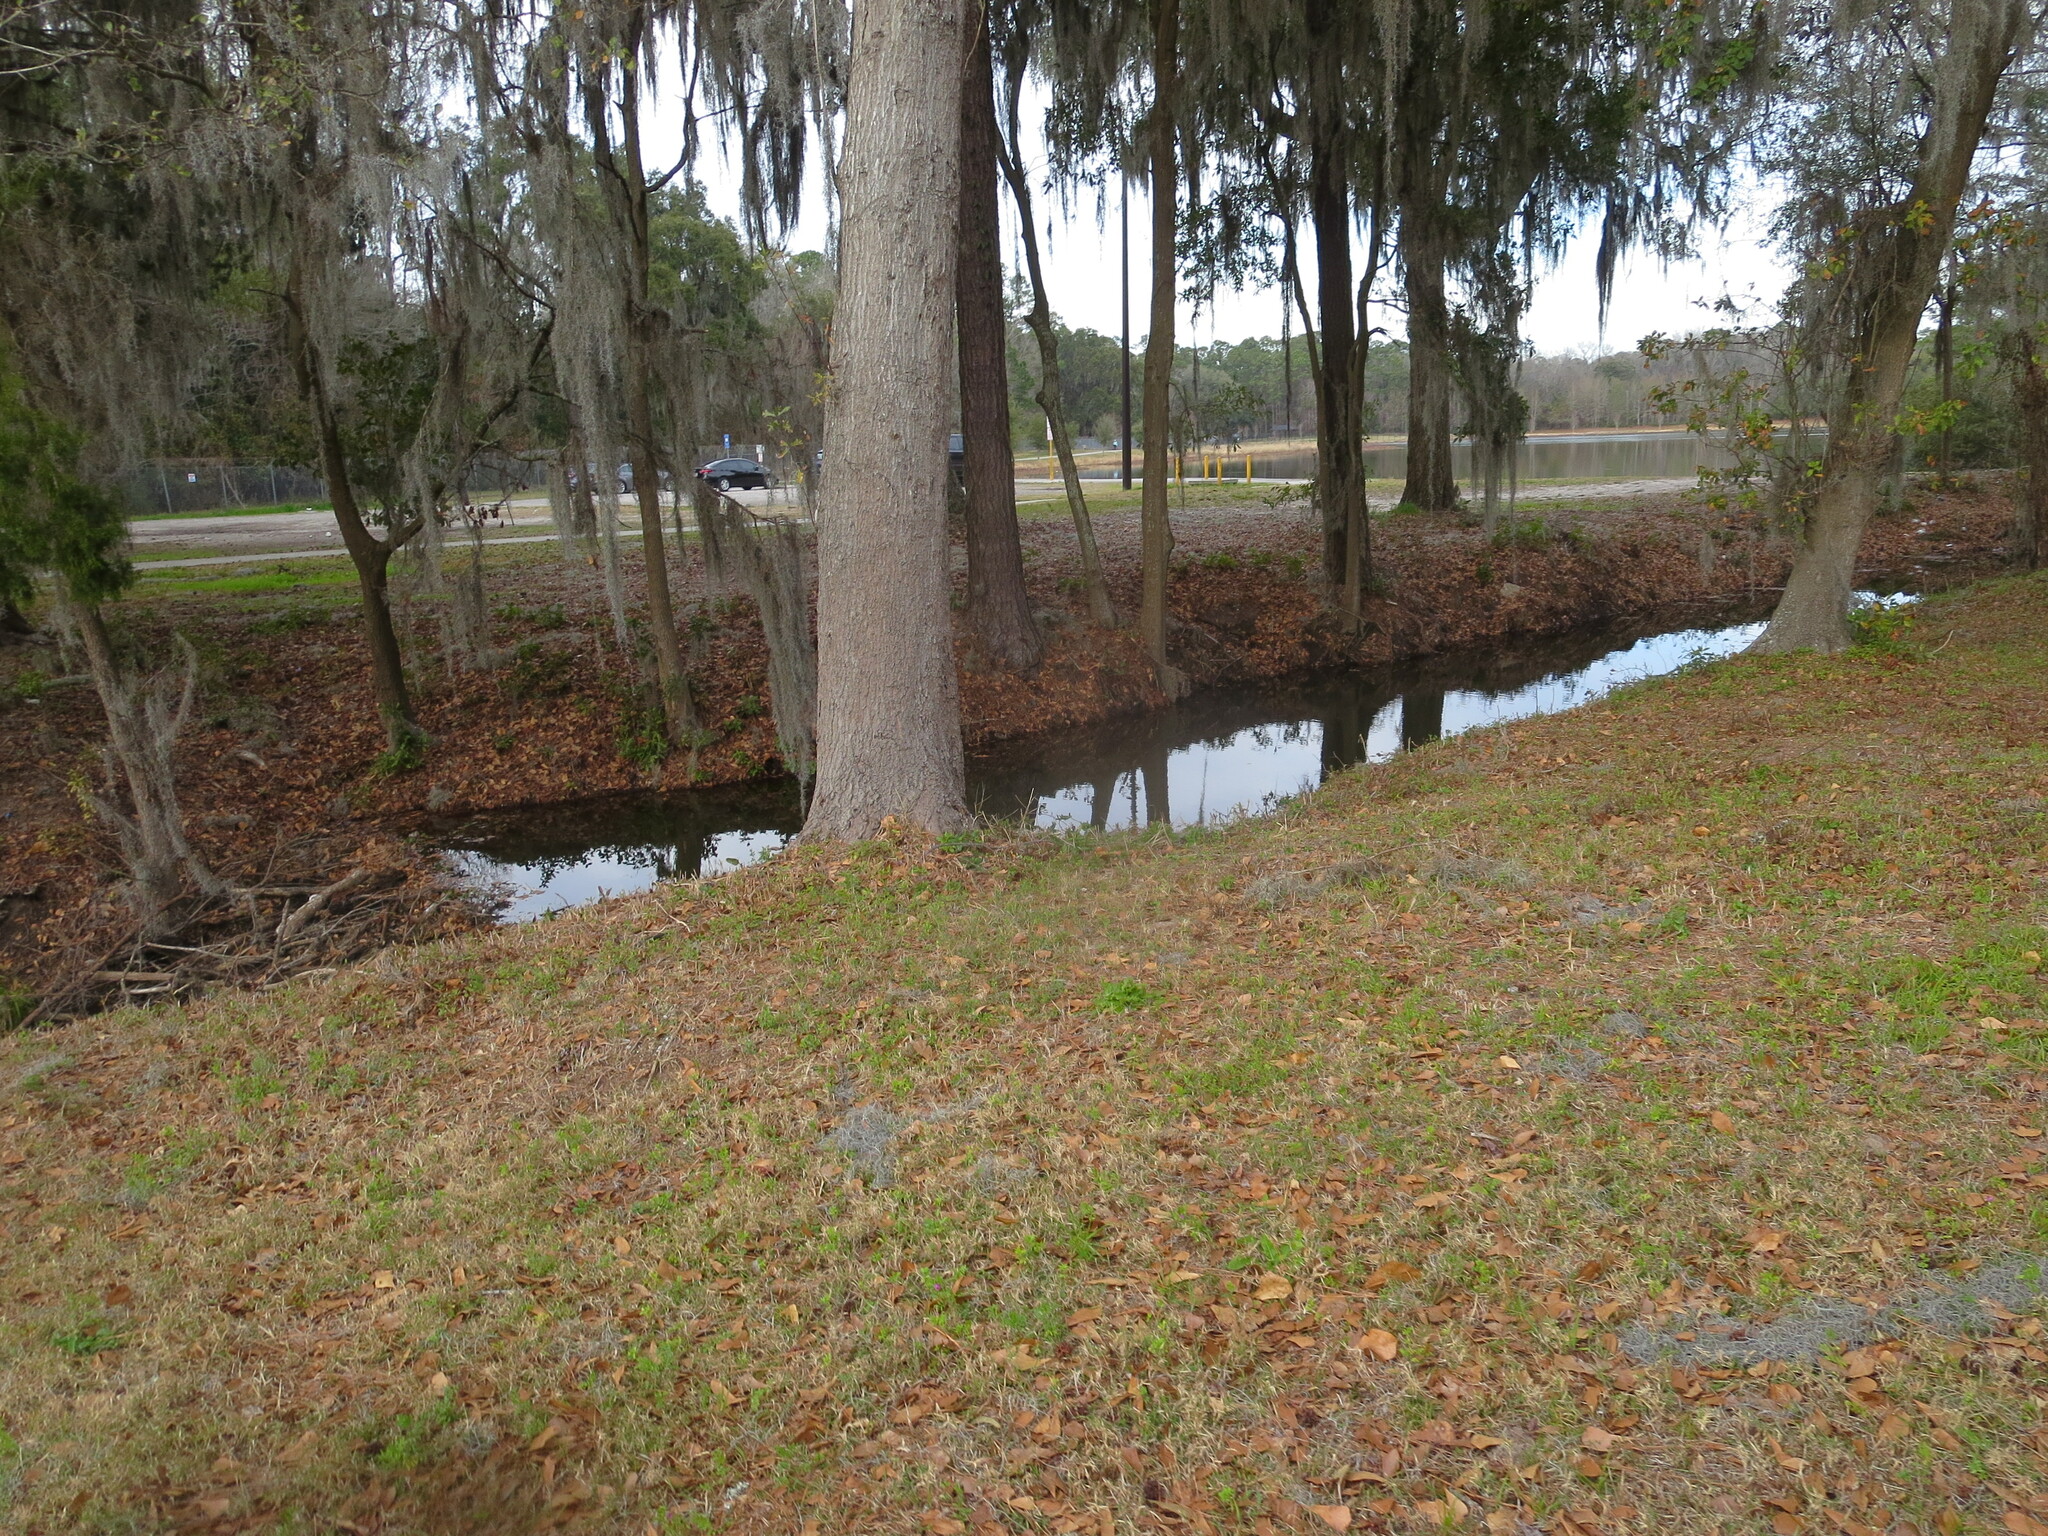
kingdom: Animalia
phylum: Chordata
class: Mammalia
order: Rodentia
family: Castoridae
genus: Castor
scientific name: Castor canadensis
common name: American beaver
